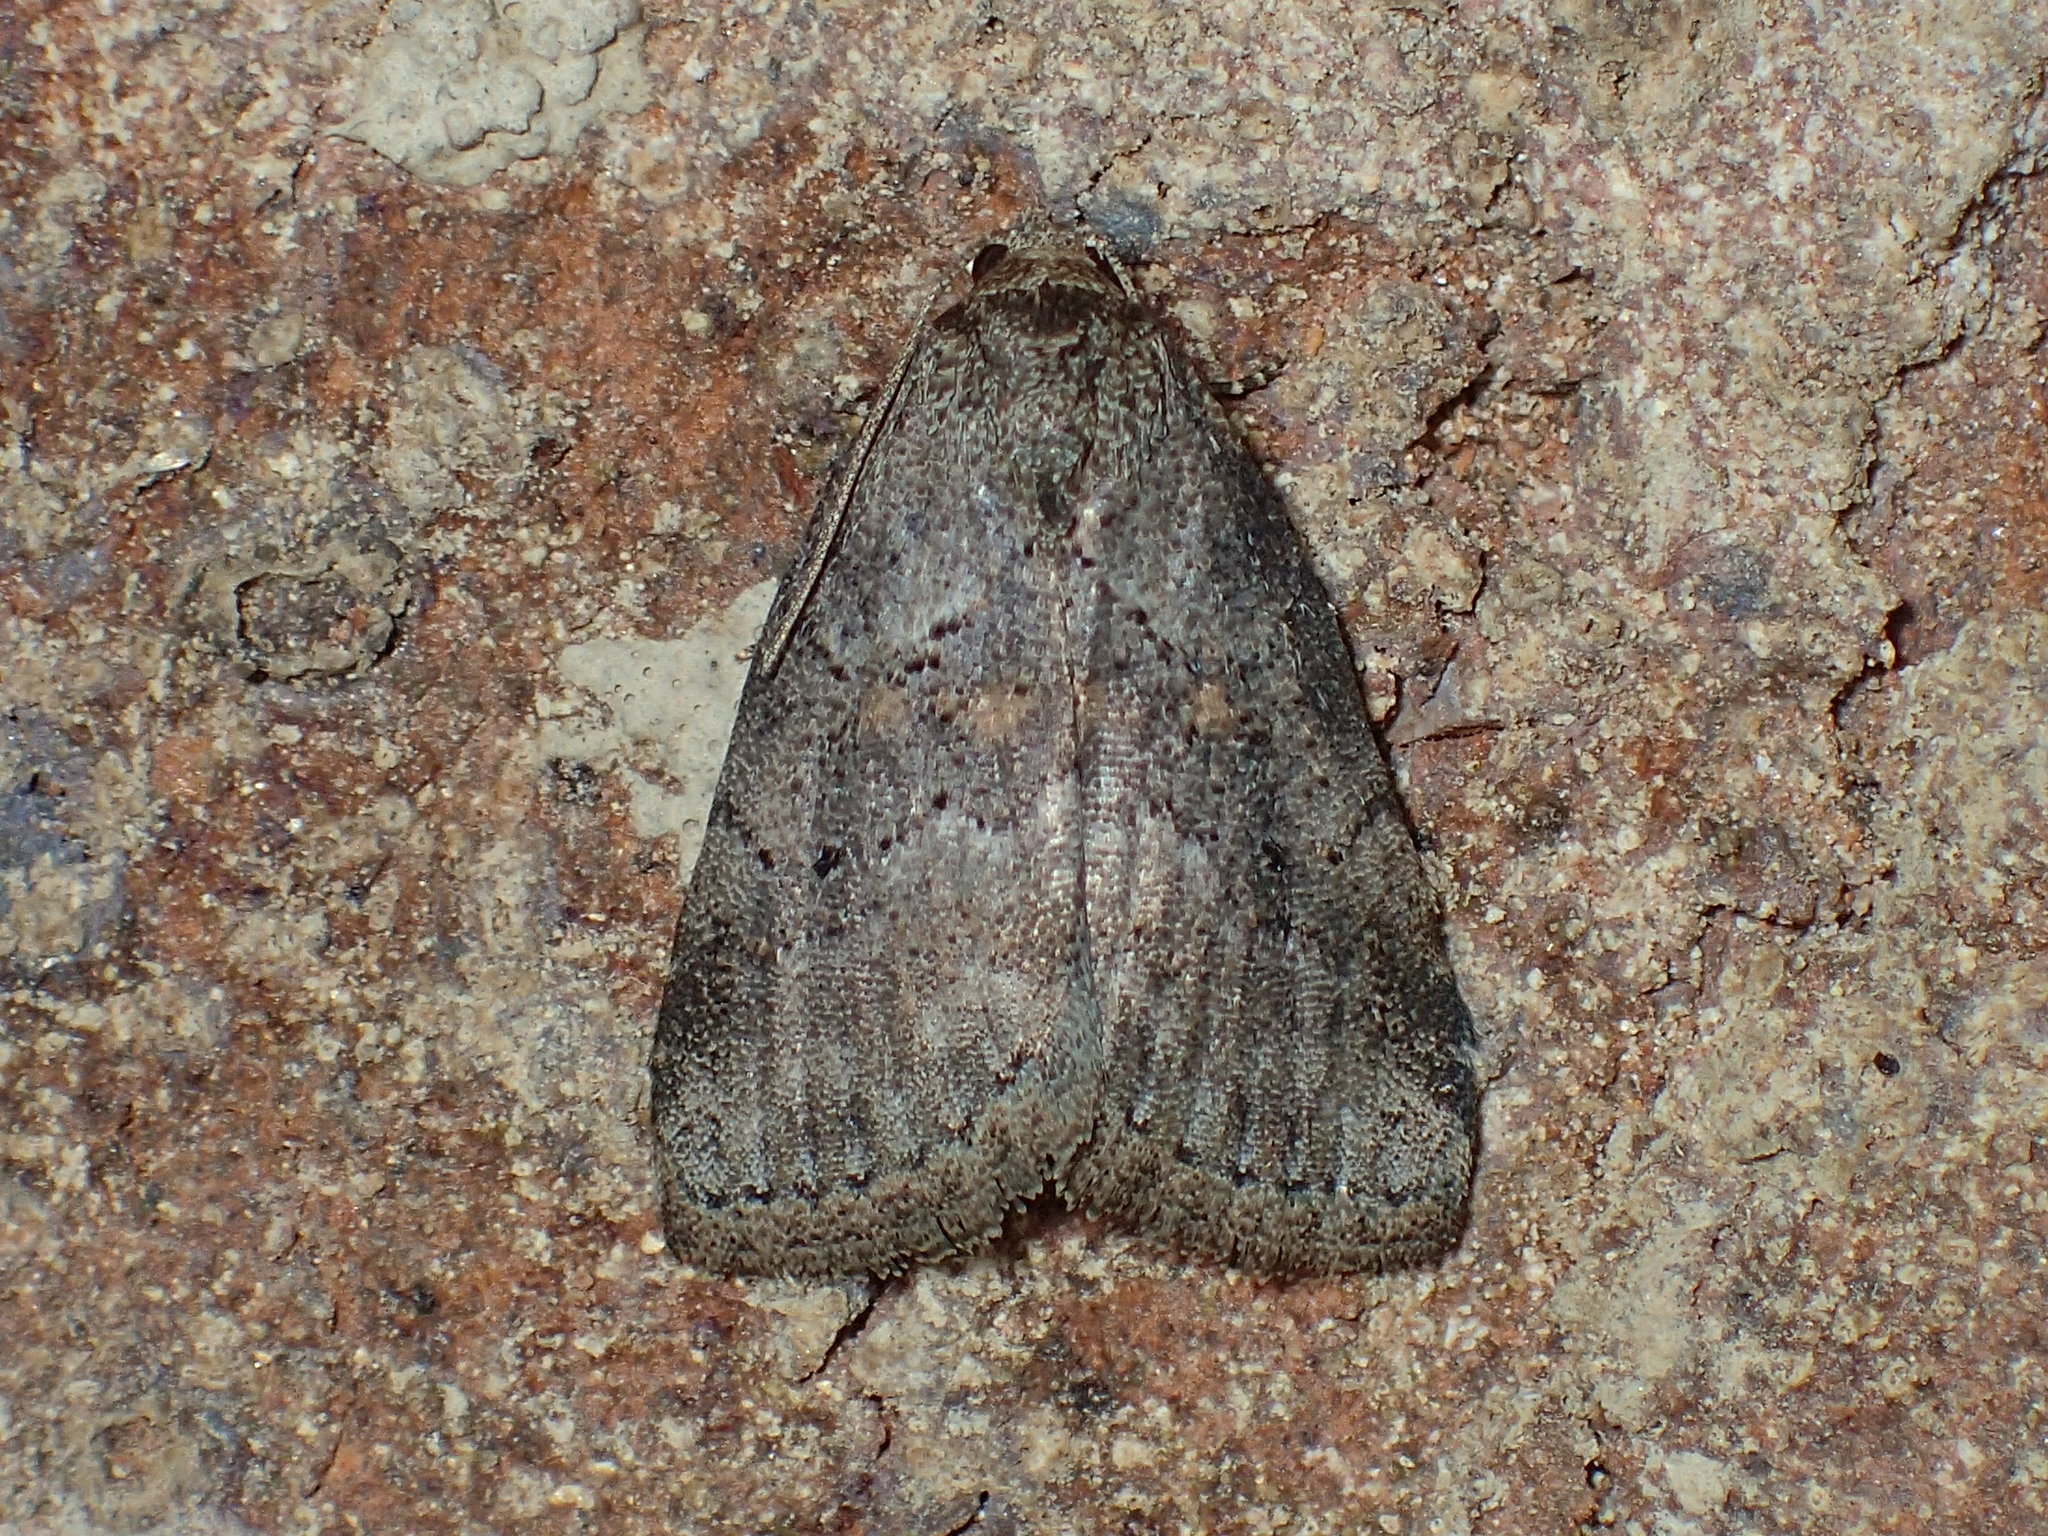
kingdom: Animalia
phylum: Arthropoda
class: Insecta
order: Lepidoptera
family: Erebidae
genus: Hyperstrotia
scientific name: Hyperstrotia nana
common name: White-lined graylet
